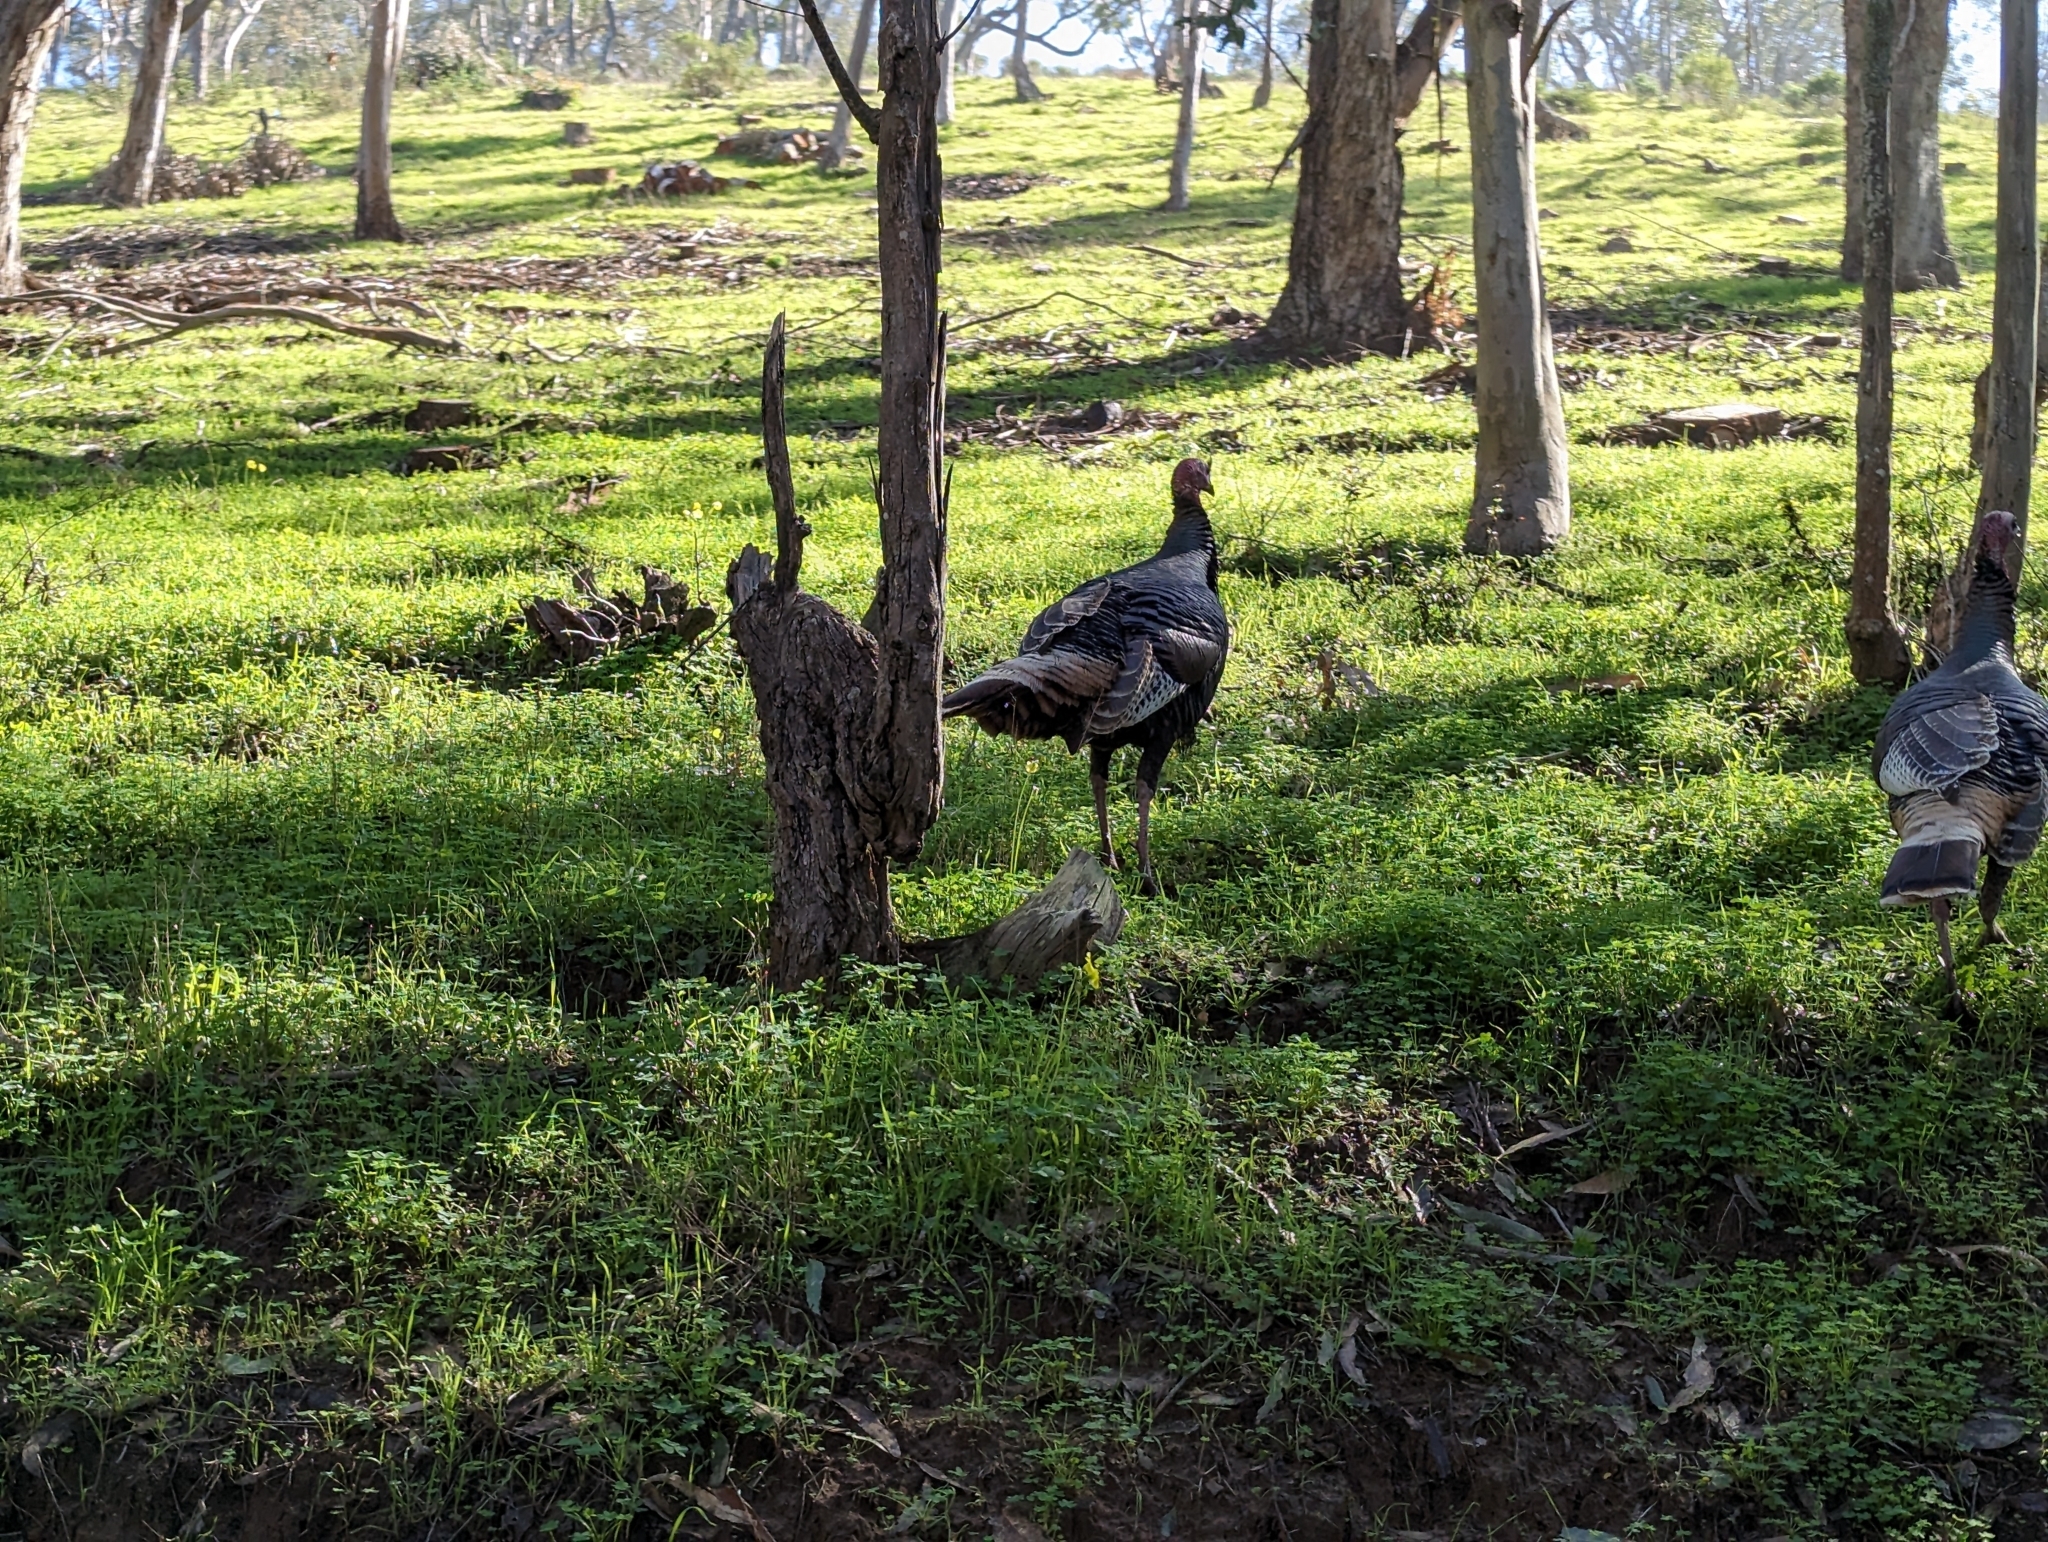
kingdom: Animalia
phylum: Chordata
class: Aves
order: Galliformes
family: Phasianidae
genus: Meleagris
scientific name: Meleagris gallopavo
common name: Wild turkey
